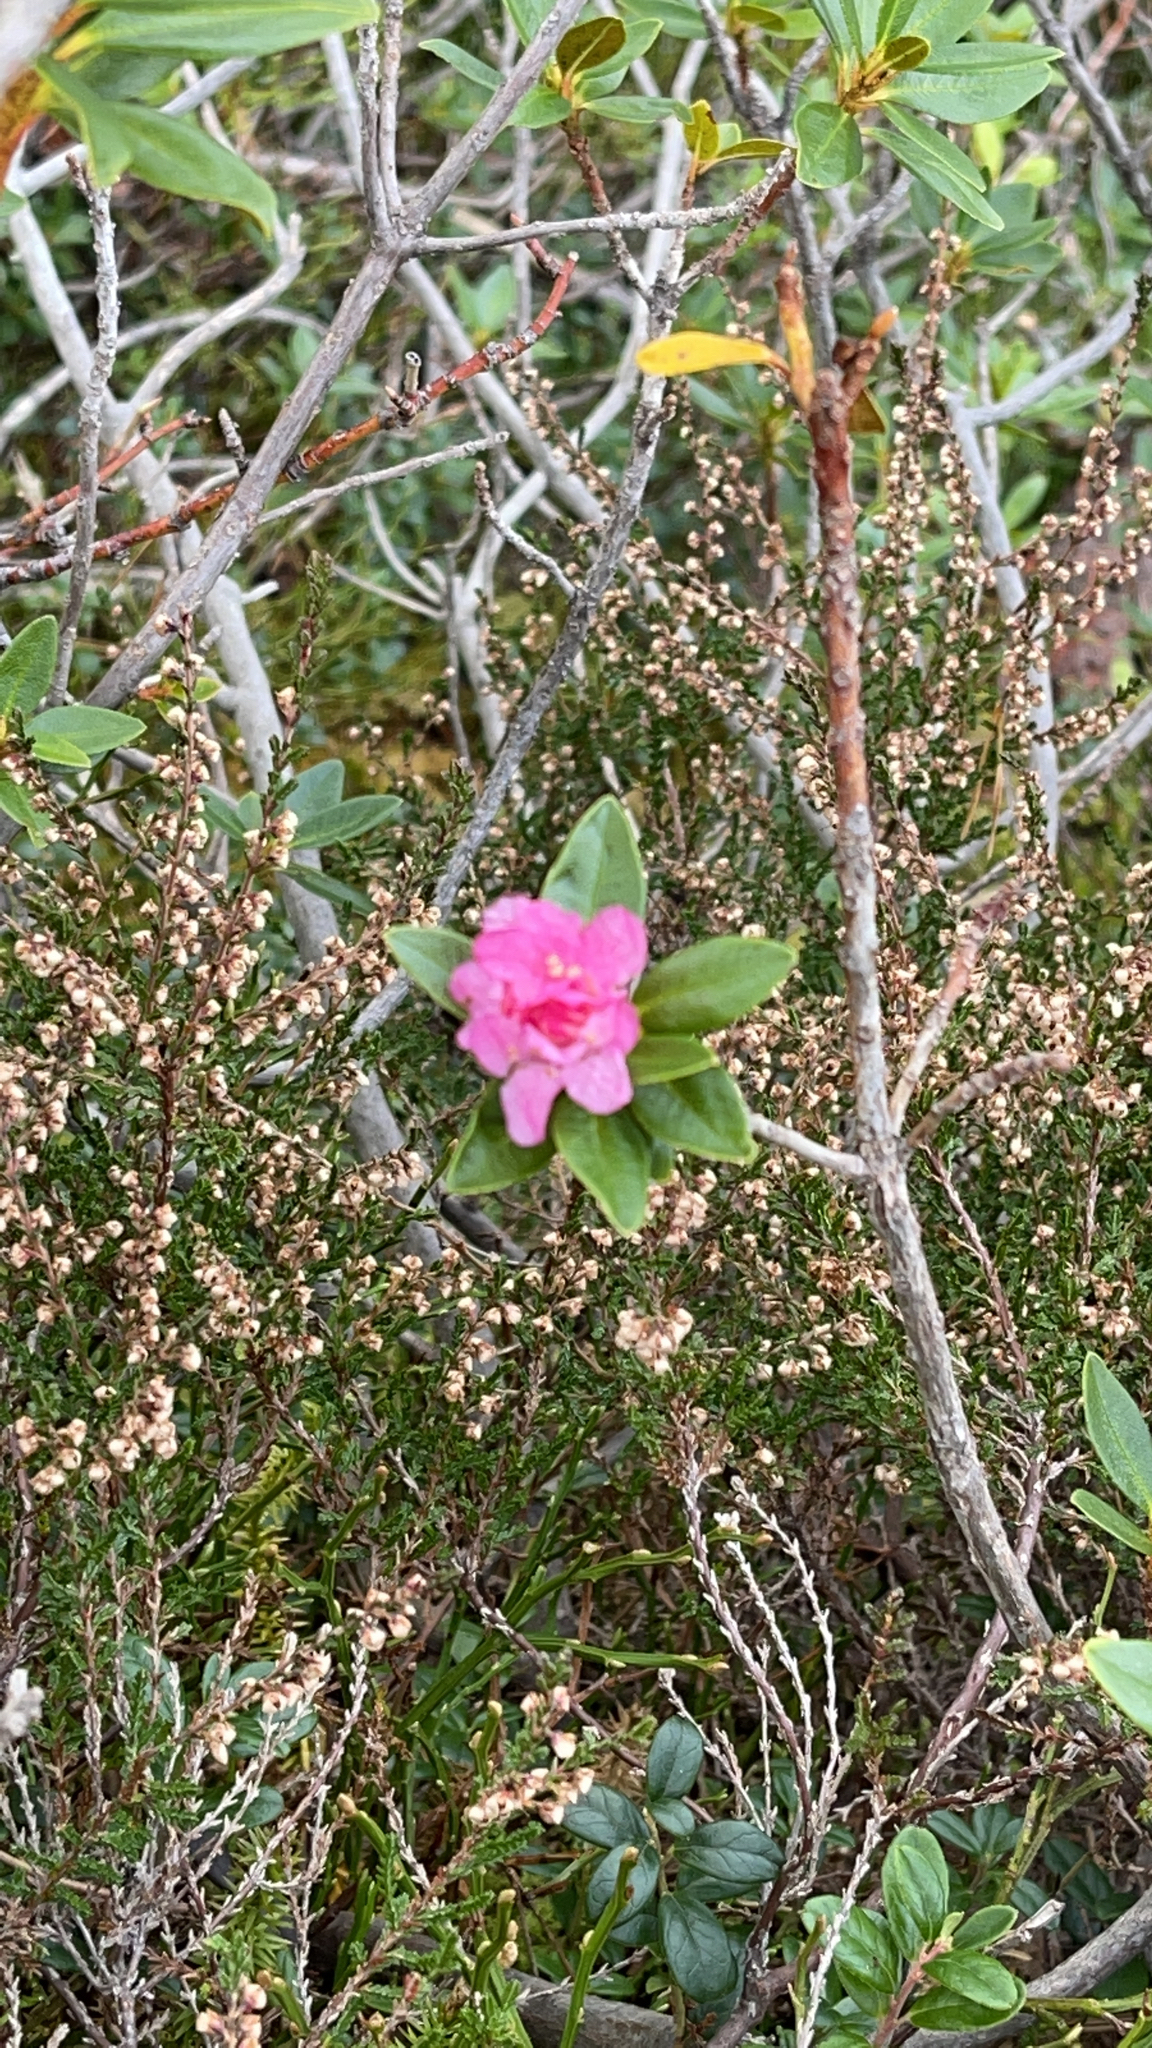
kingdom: Plantae
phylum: Tracheophyta
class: Magnoliopsida
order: Ericales
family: Ericaceae
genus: Rhododendron
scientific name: Rhododendron ferrugineum
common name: Alpenrose
